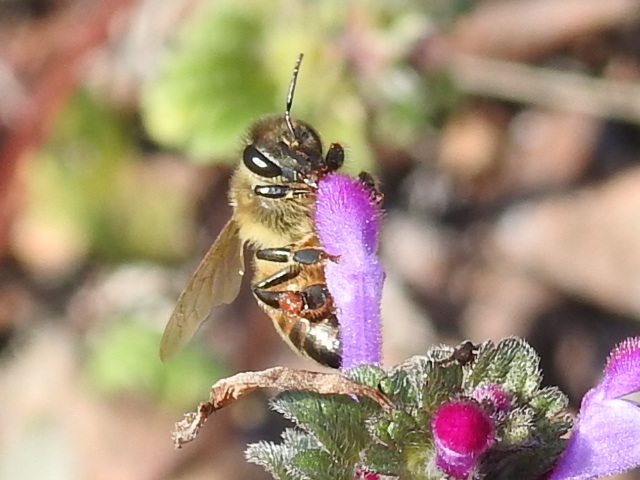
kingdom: Animalia
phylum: Arthropoda
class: Insecta
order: Hymenoptera
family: Apidae
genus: Apis
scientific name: Apis mellifera
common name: Honey bee
